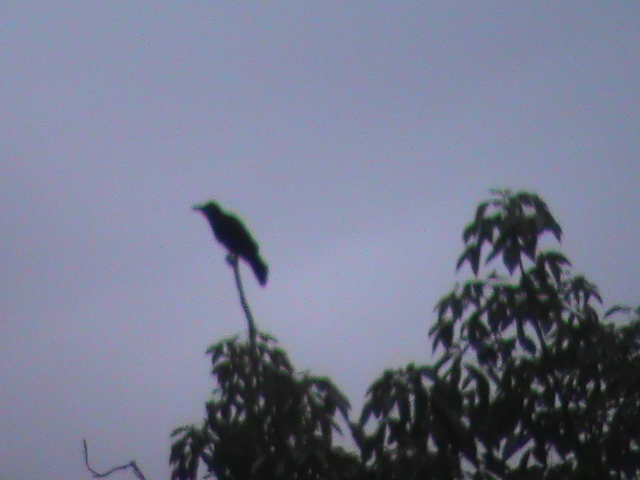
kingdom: Animalia
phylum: Chordata
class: Aves
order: Passeriformes
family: Corvidae
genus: Corvus
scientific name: Corvus macrorhynchos
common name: Large-billed crow
